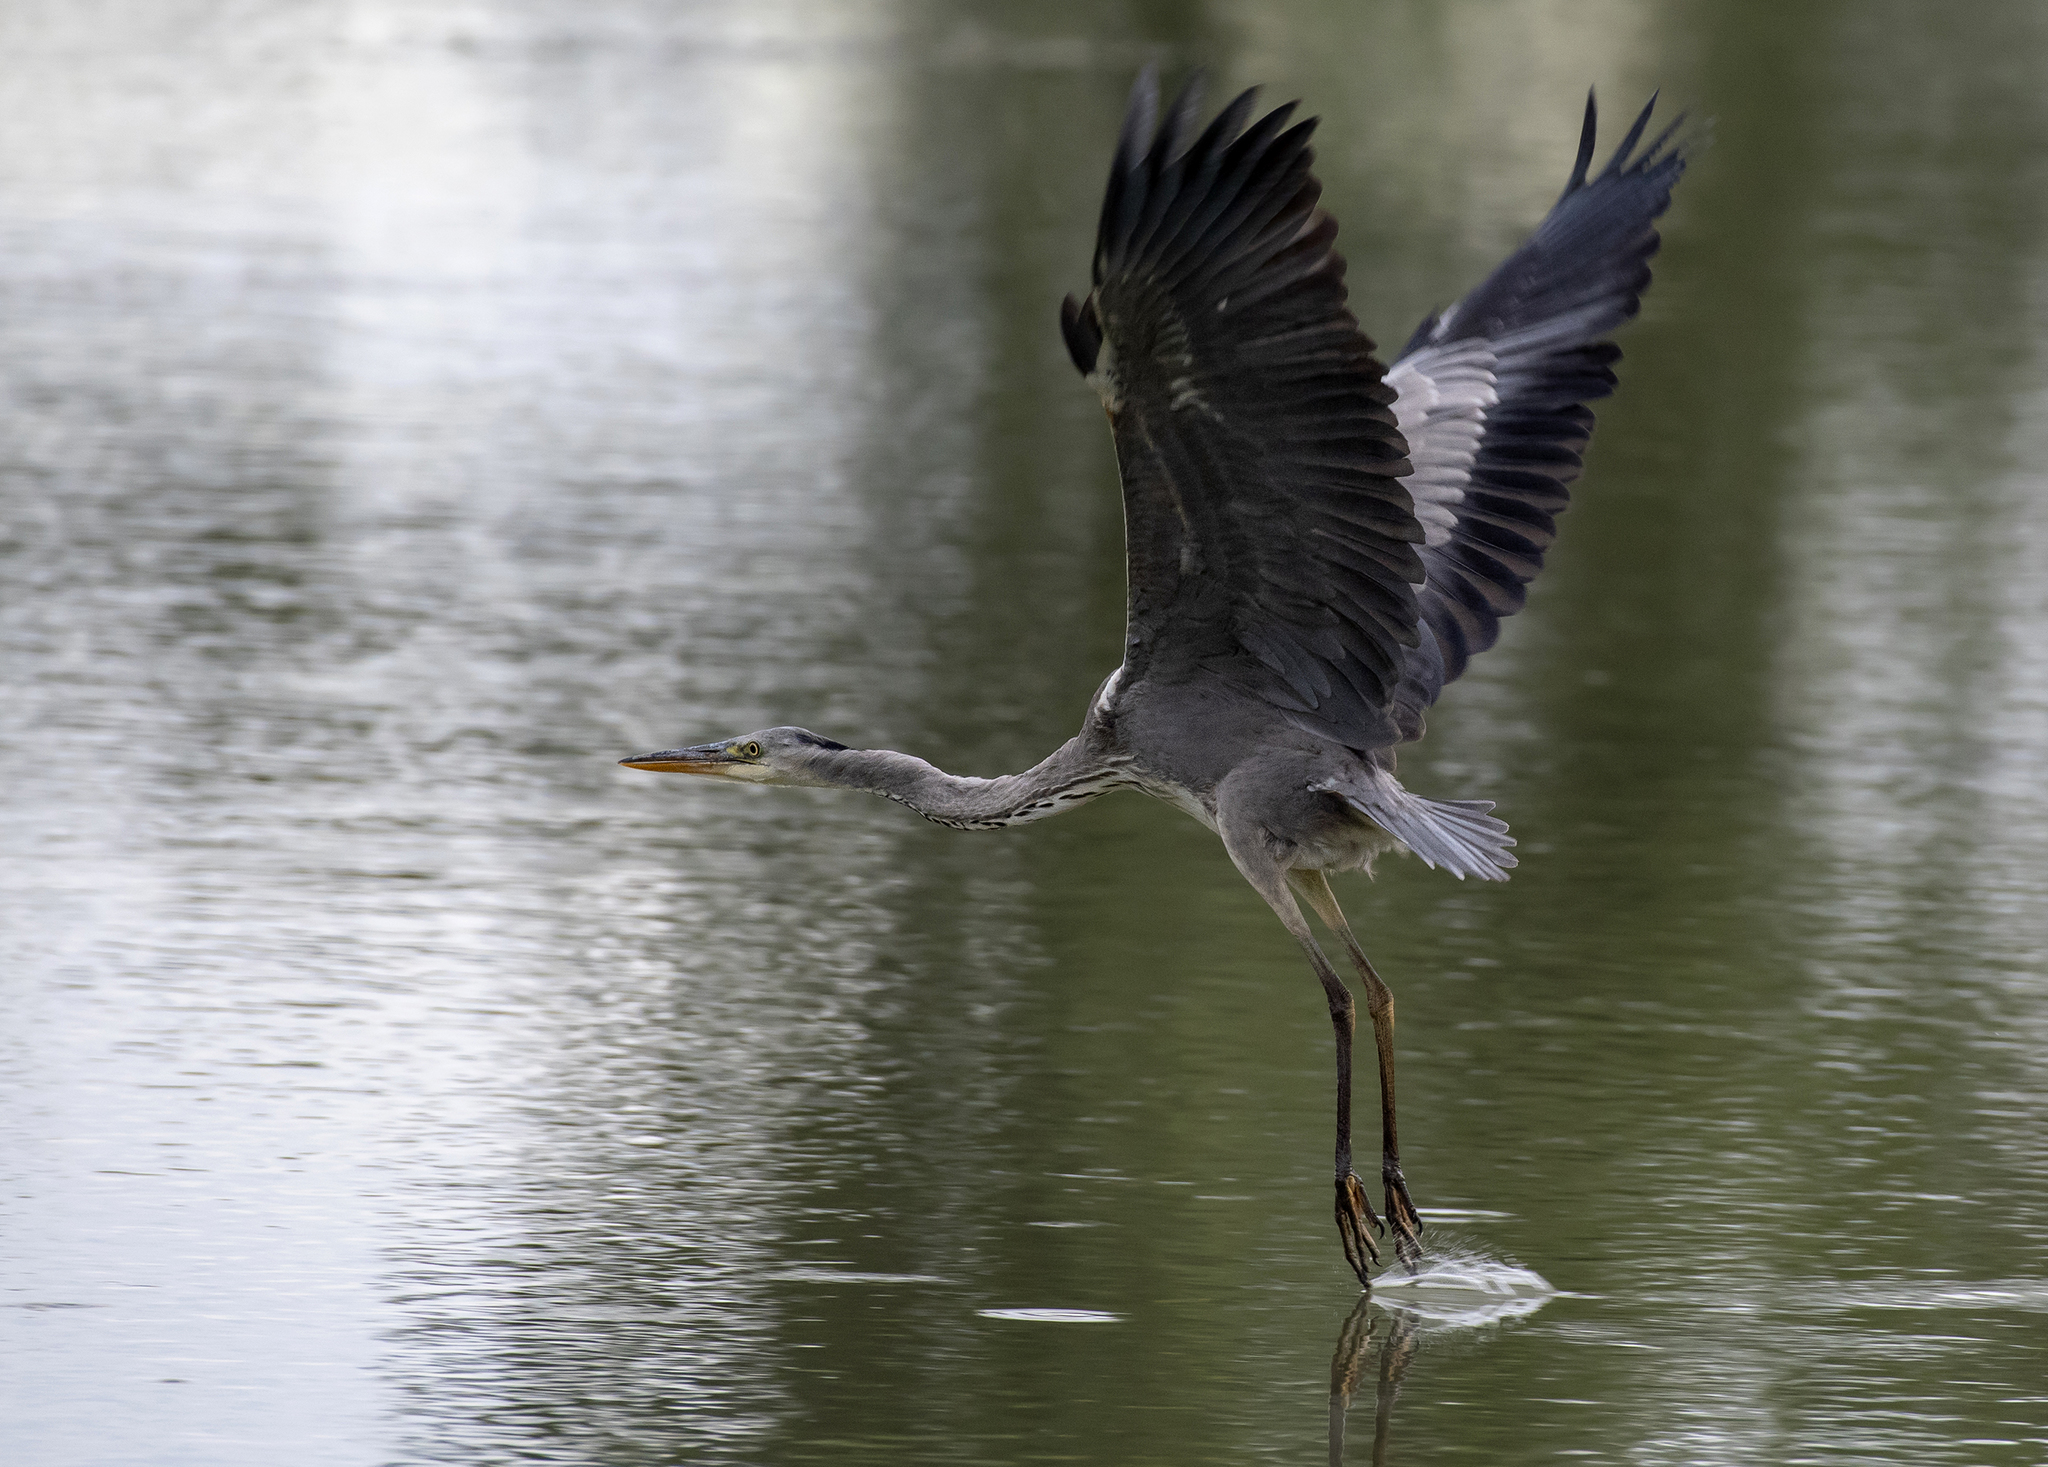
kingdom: Animalia
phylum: Chordata
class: Aves
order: Pelecaniformes
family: Ardeidae
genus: Ardea
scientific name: Ardea cinerea
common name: Grey heron
